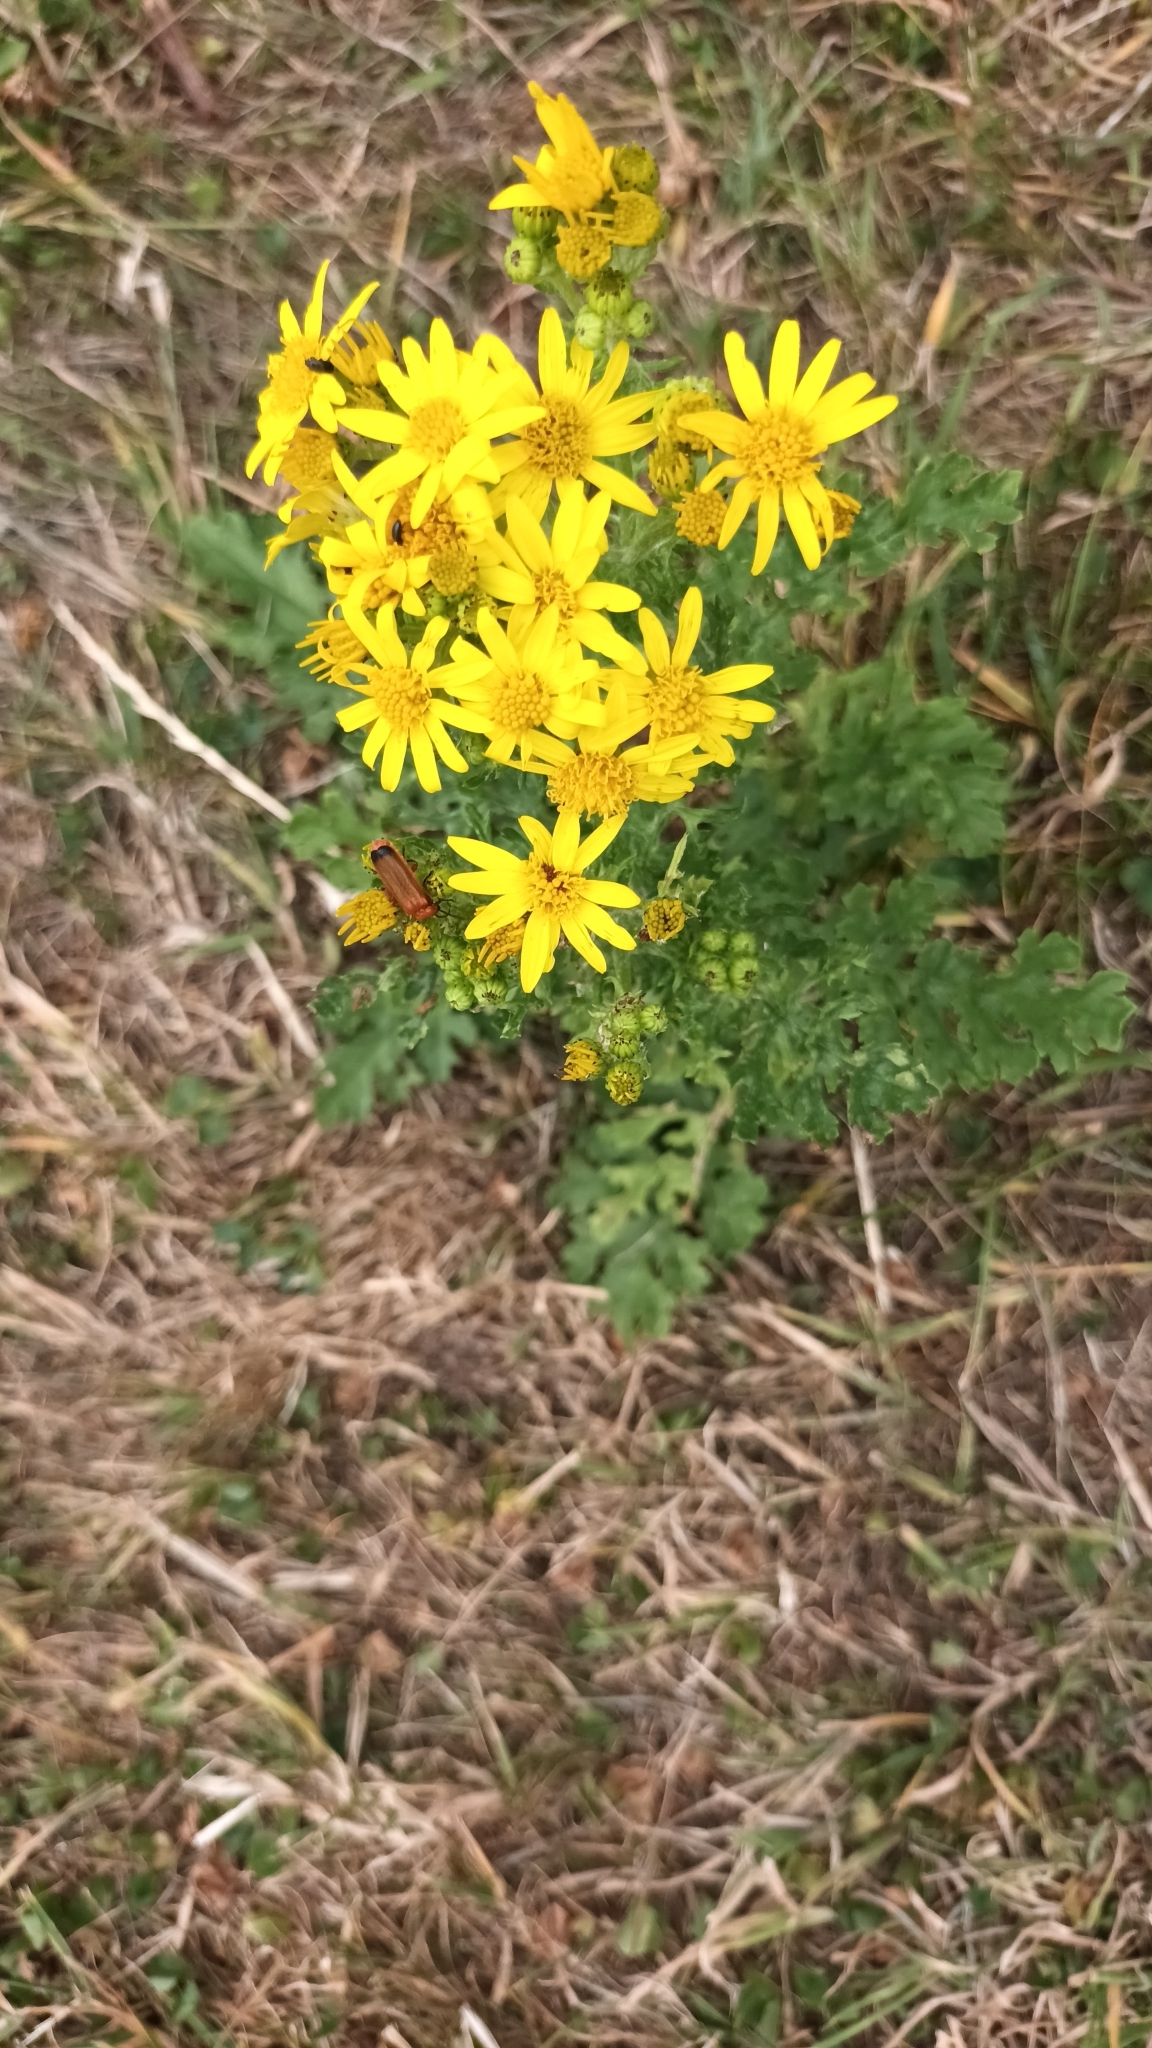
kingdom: Plantae
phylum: Tracheophyta
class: Magnoliopsida
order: Asterales
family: Asteraceae
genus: Jacobaea
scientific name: Jacobaea vulgaris
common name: Stinking willie
